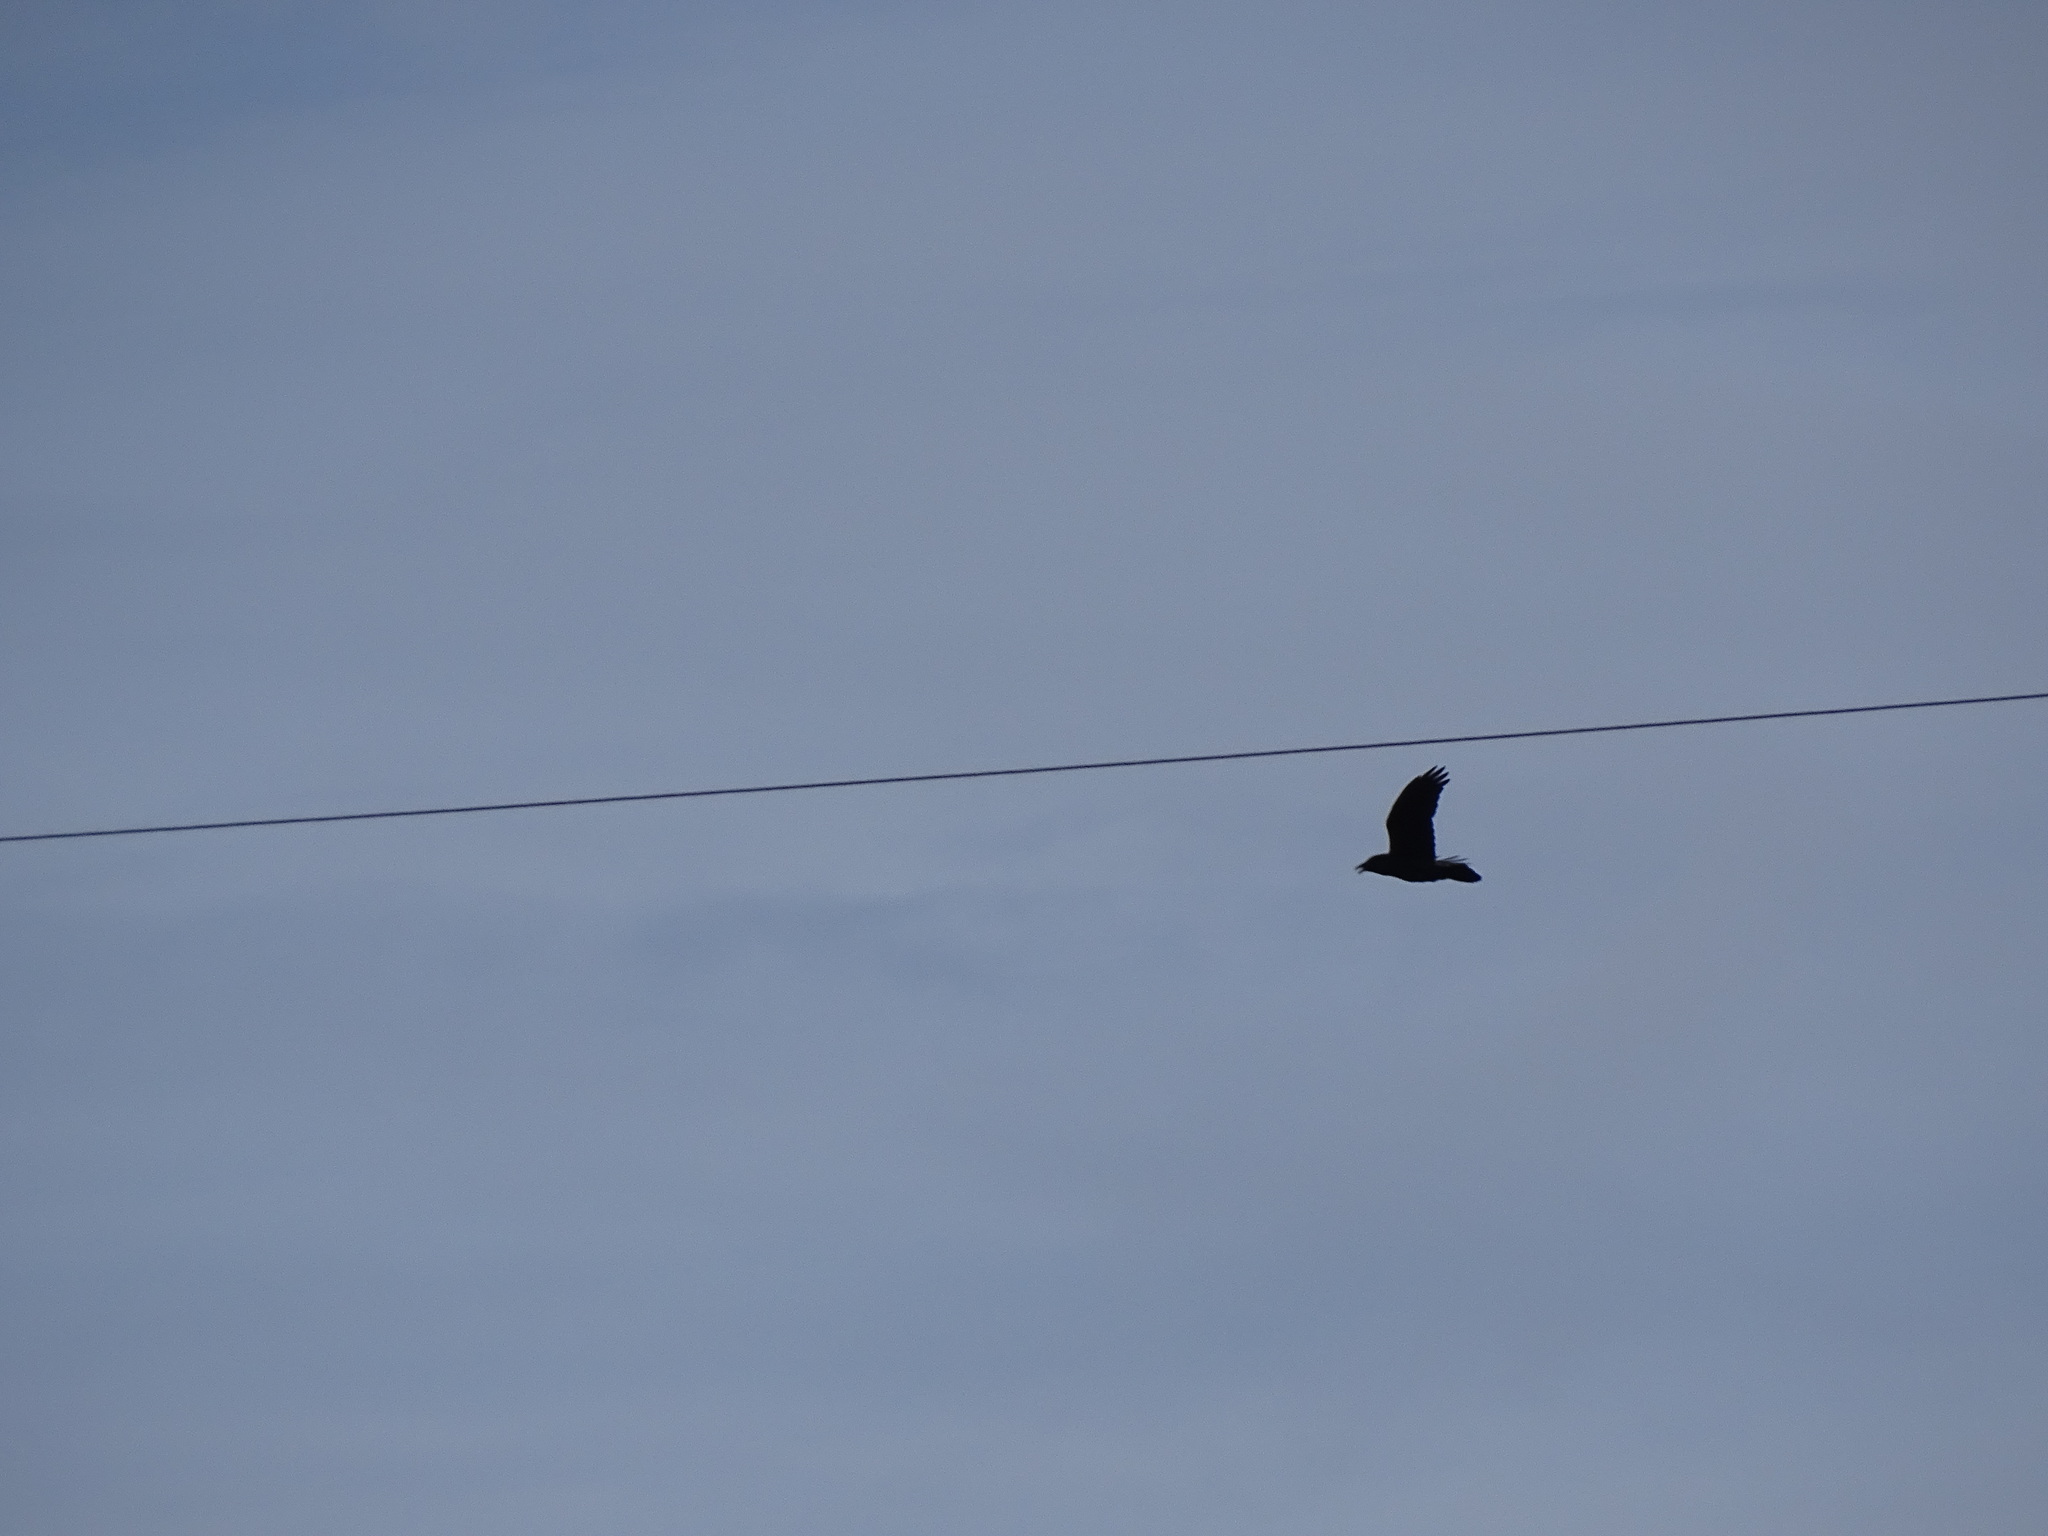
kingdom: Animalia
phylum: Chordata
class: Aves
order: Passeriformes
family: Corvidae
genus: Corvus
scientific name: Corvus corax
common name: Common raven
